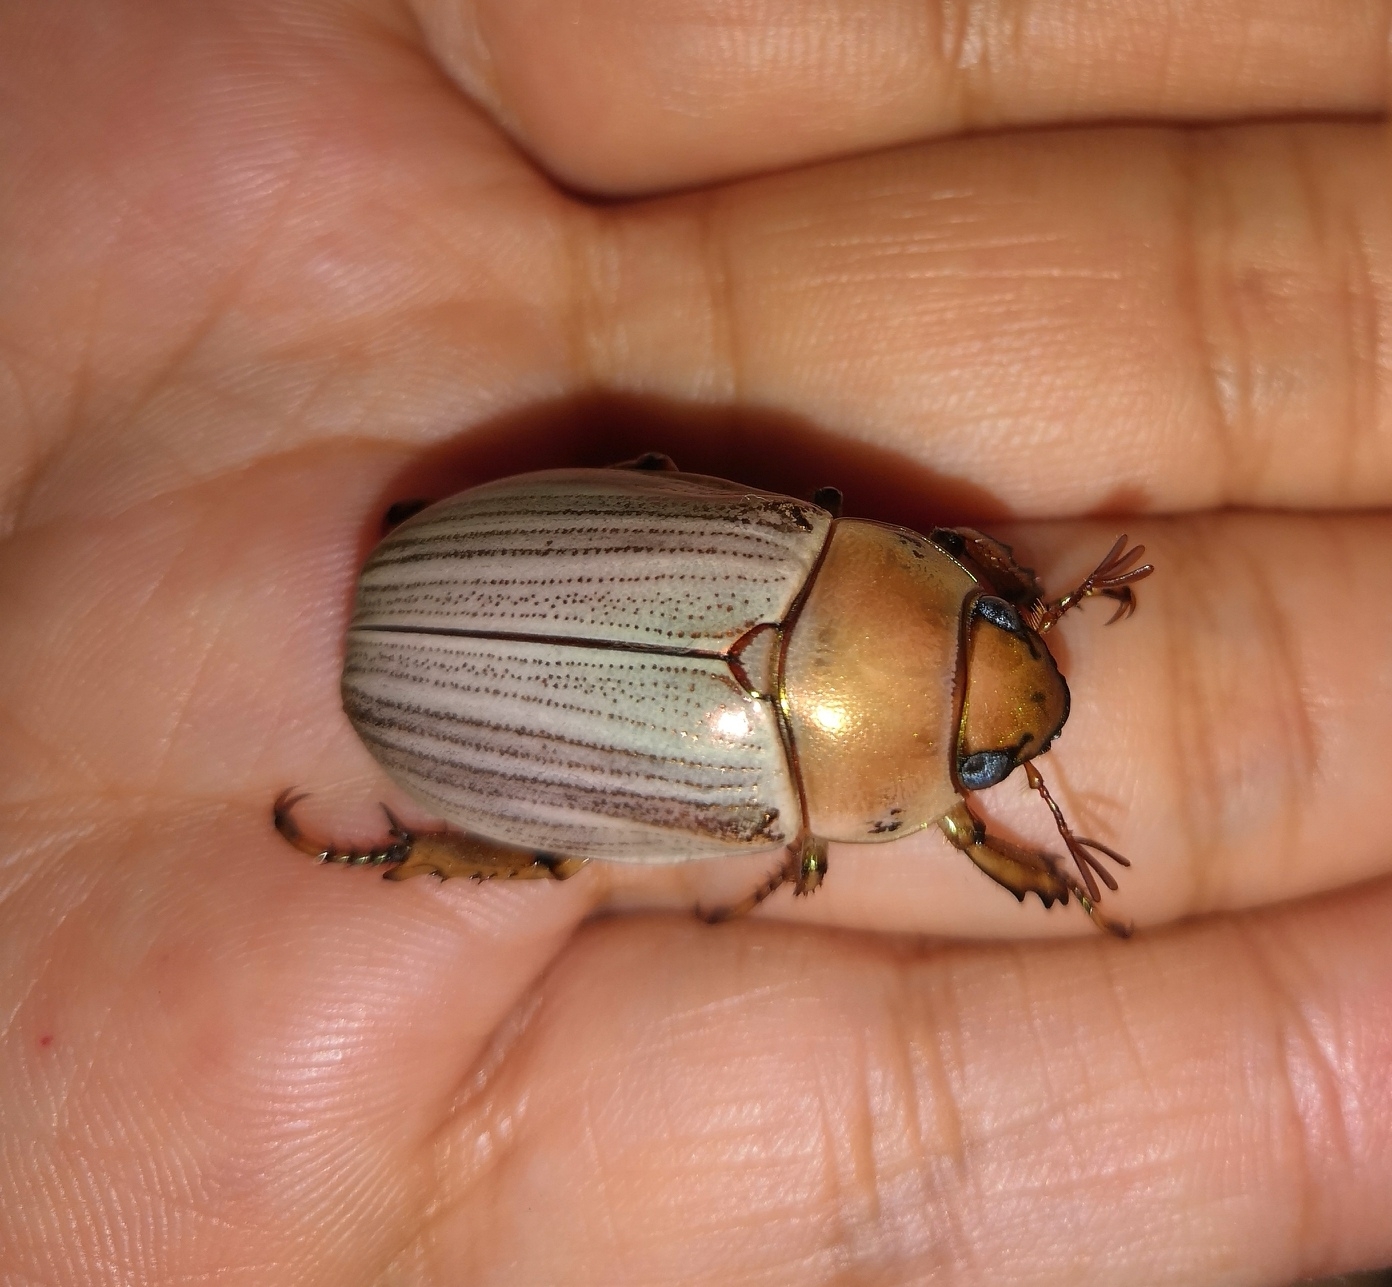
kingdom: Animalia
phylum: Arthropoda
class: Insecta
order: Coleoptera
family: Scarabaeidae
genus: Pelidnota
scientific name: Pelidnota virescens
